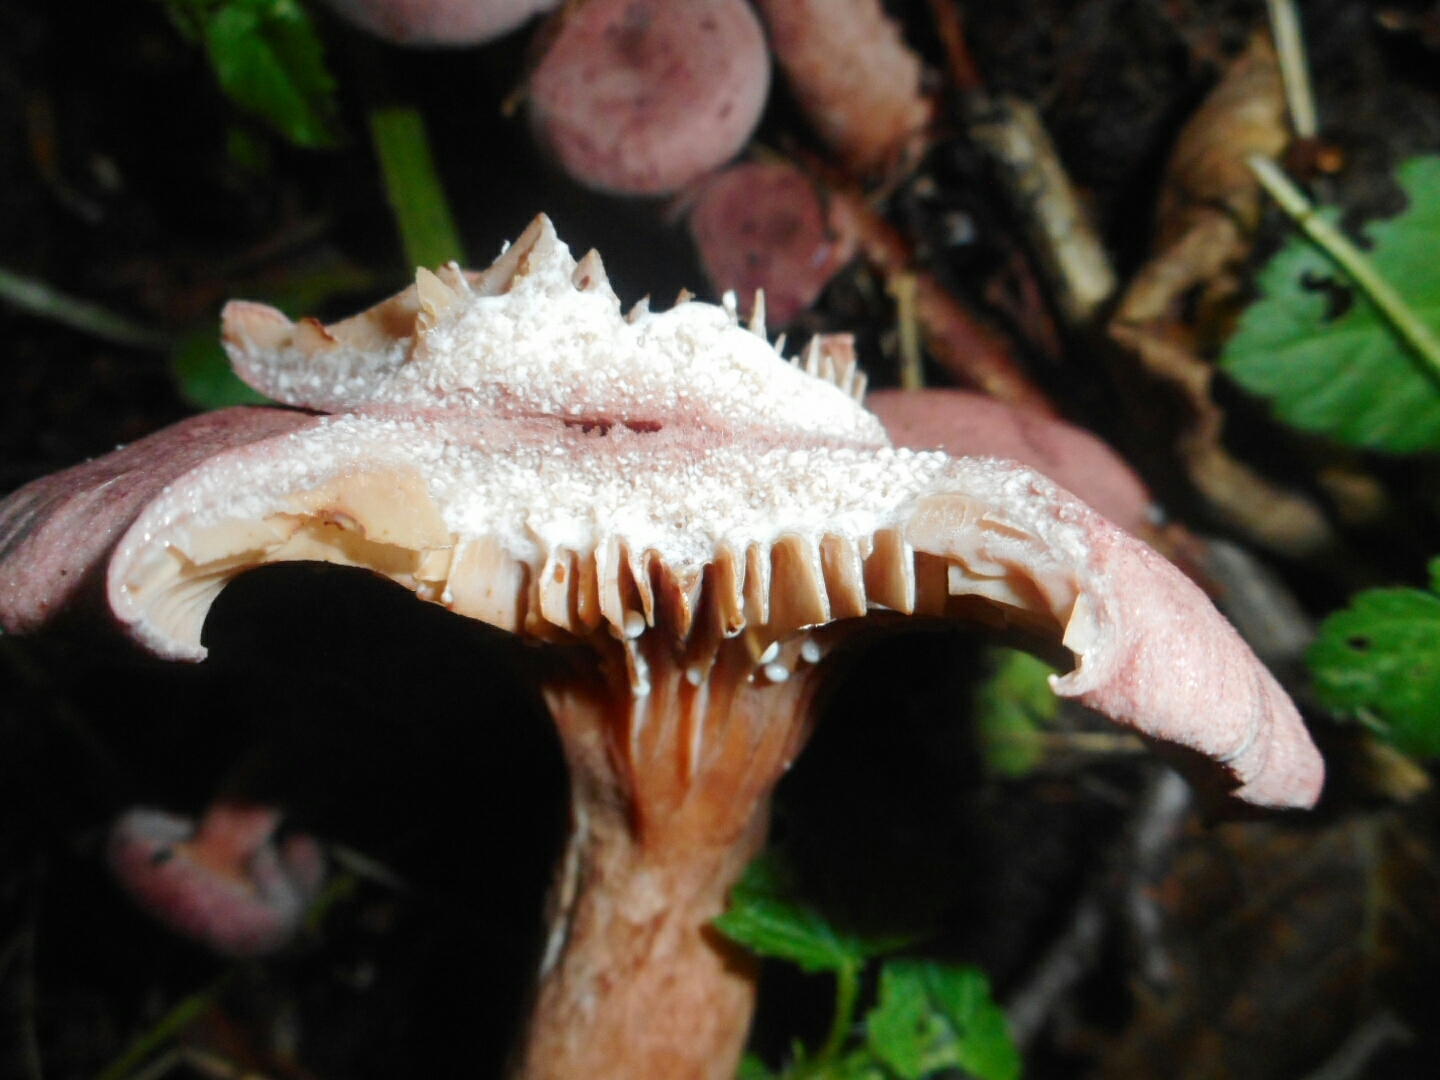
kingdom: Fungi
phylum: Basidiomycota
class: Agaricomycetes
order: Russulales
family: Russulaceae
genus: Lactarius
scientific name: Lactarius lilacinus
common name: Lilac milkcap
